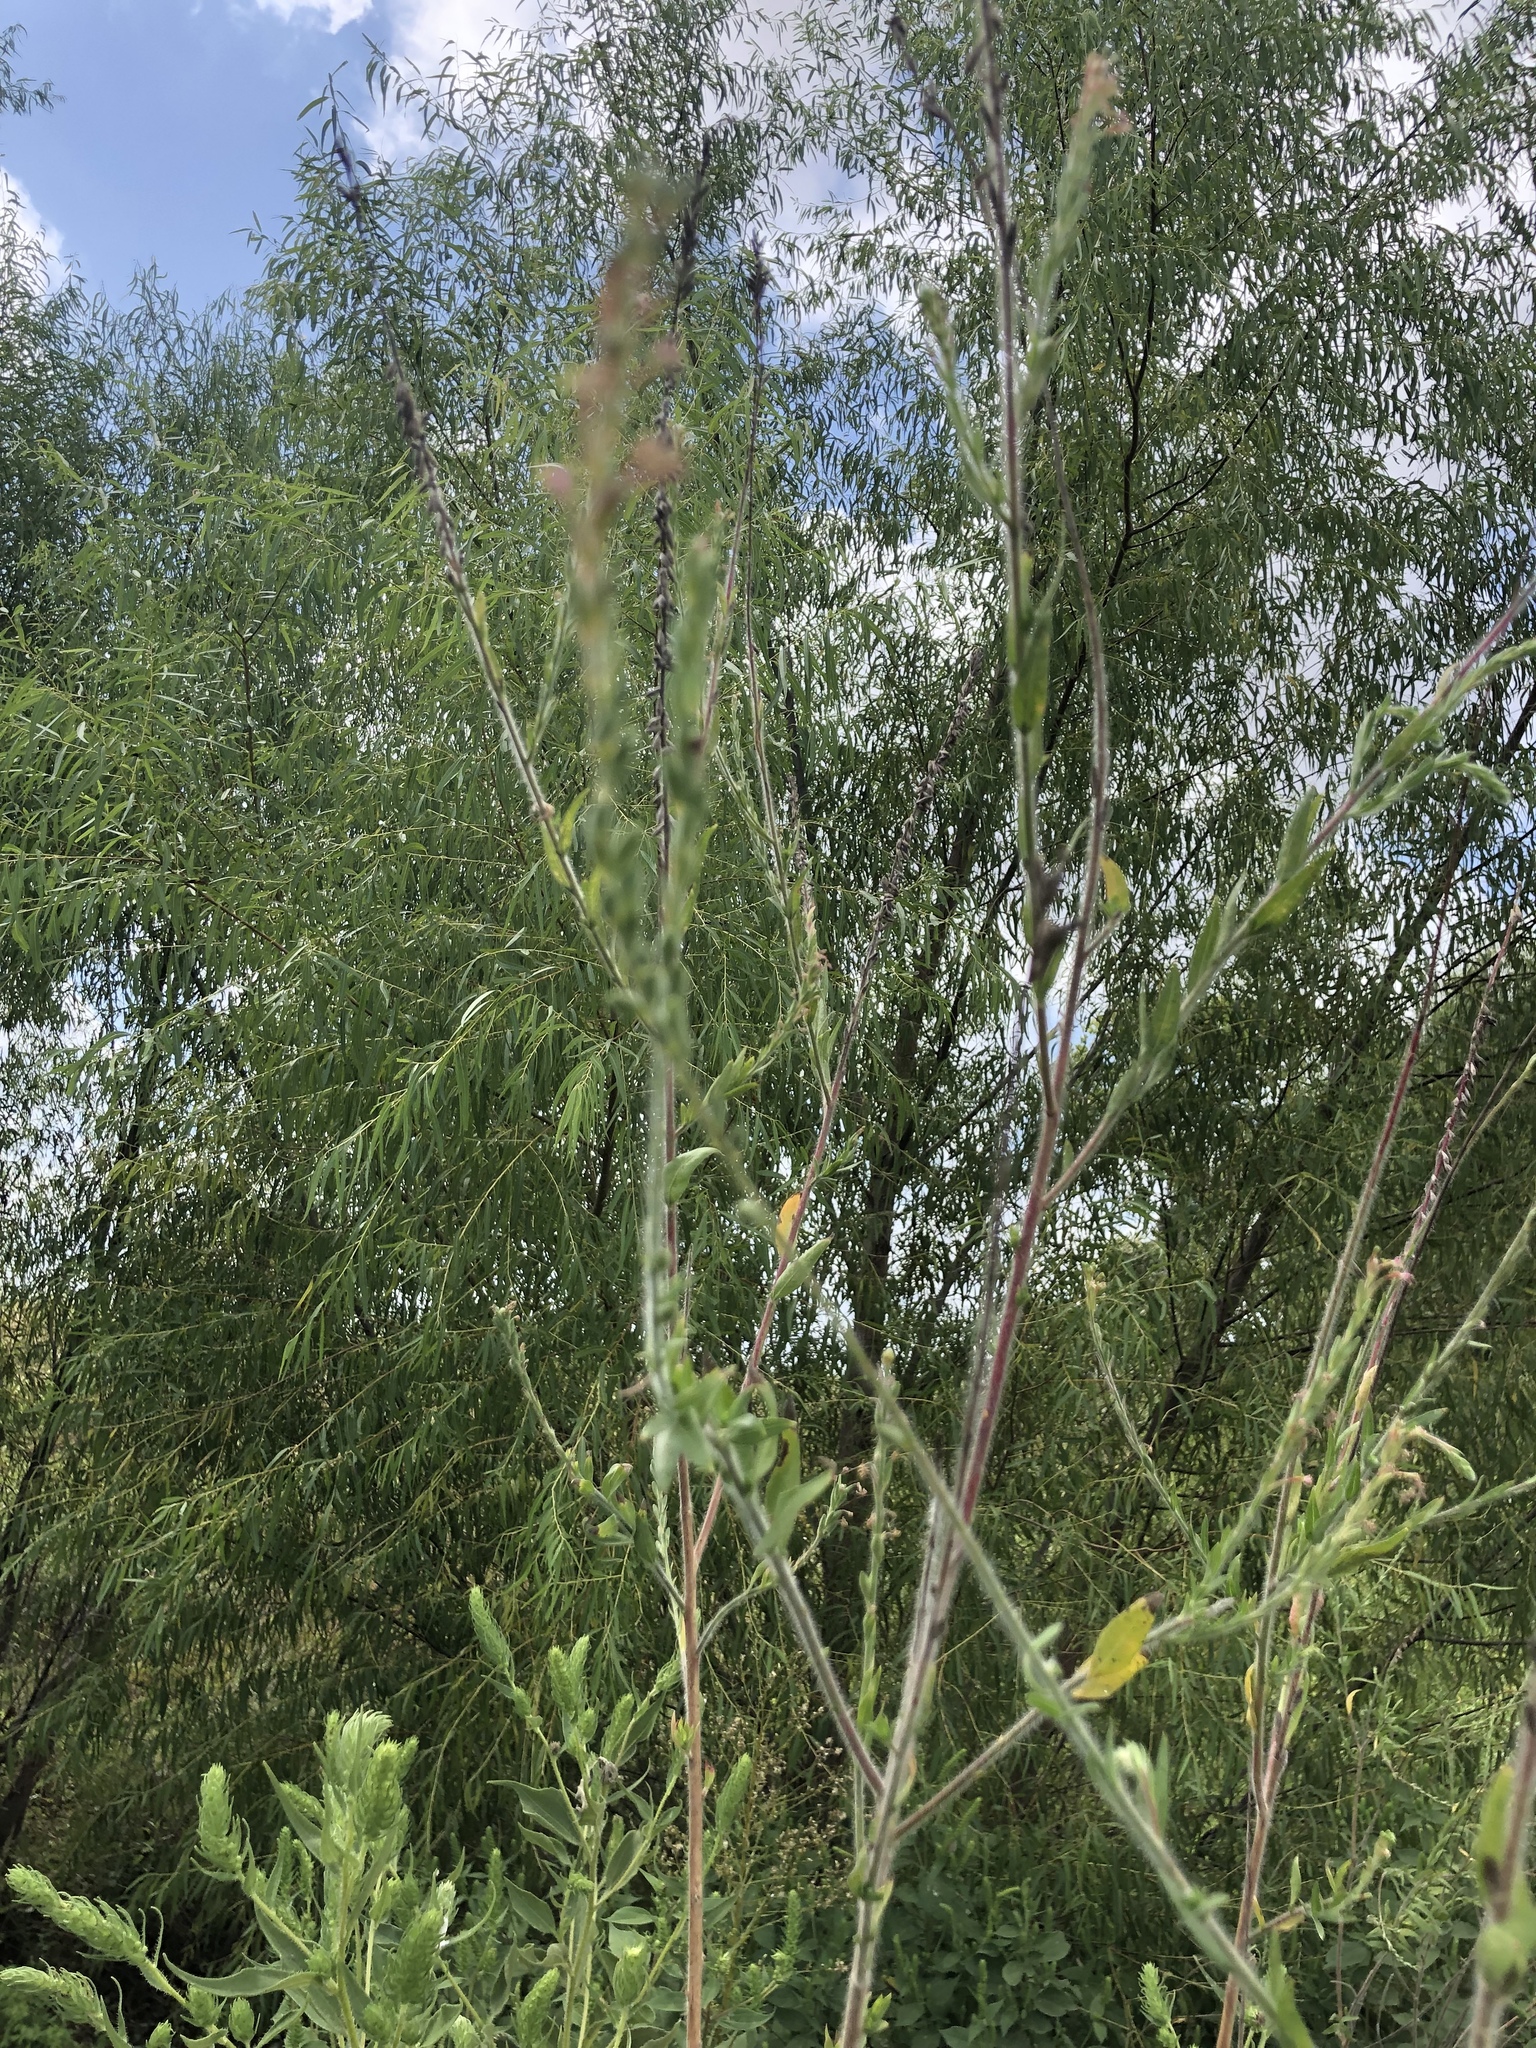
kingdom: Plantae
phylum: Tracheophyta
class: Magnoliopsida
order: Myrtales
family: Onagraceae
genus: Oenothera
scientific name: Oenothera curtiflora
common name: Velvetweed
